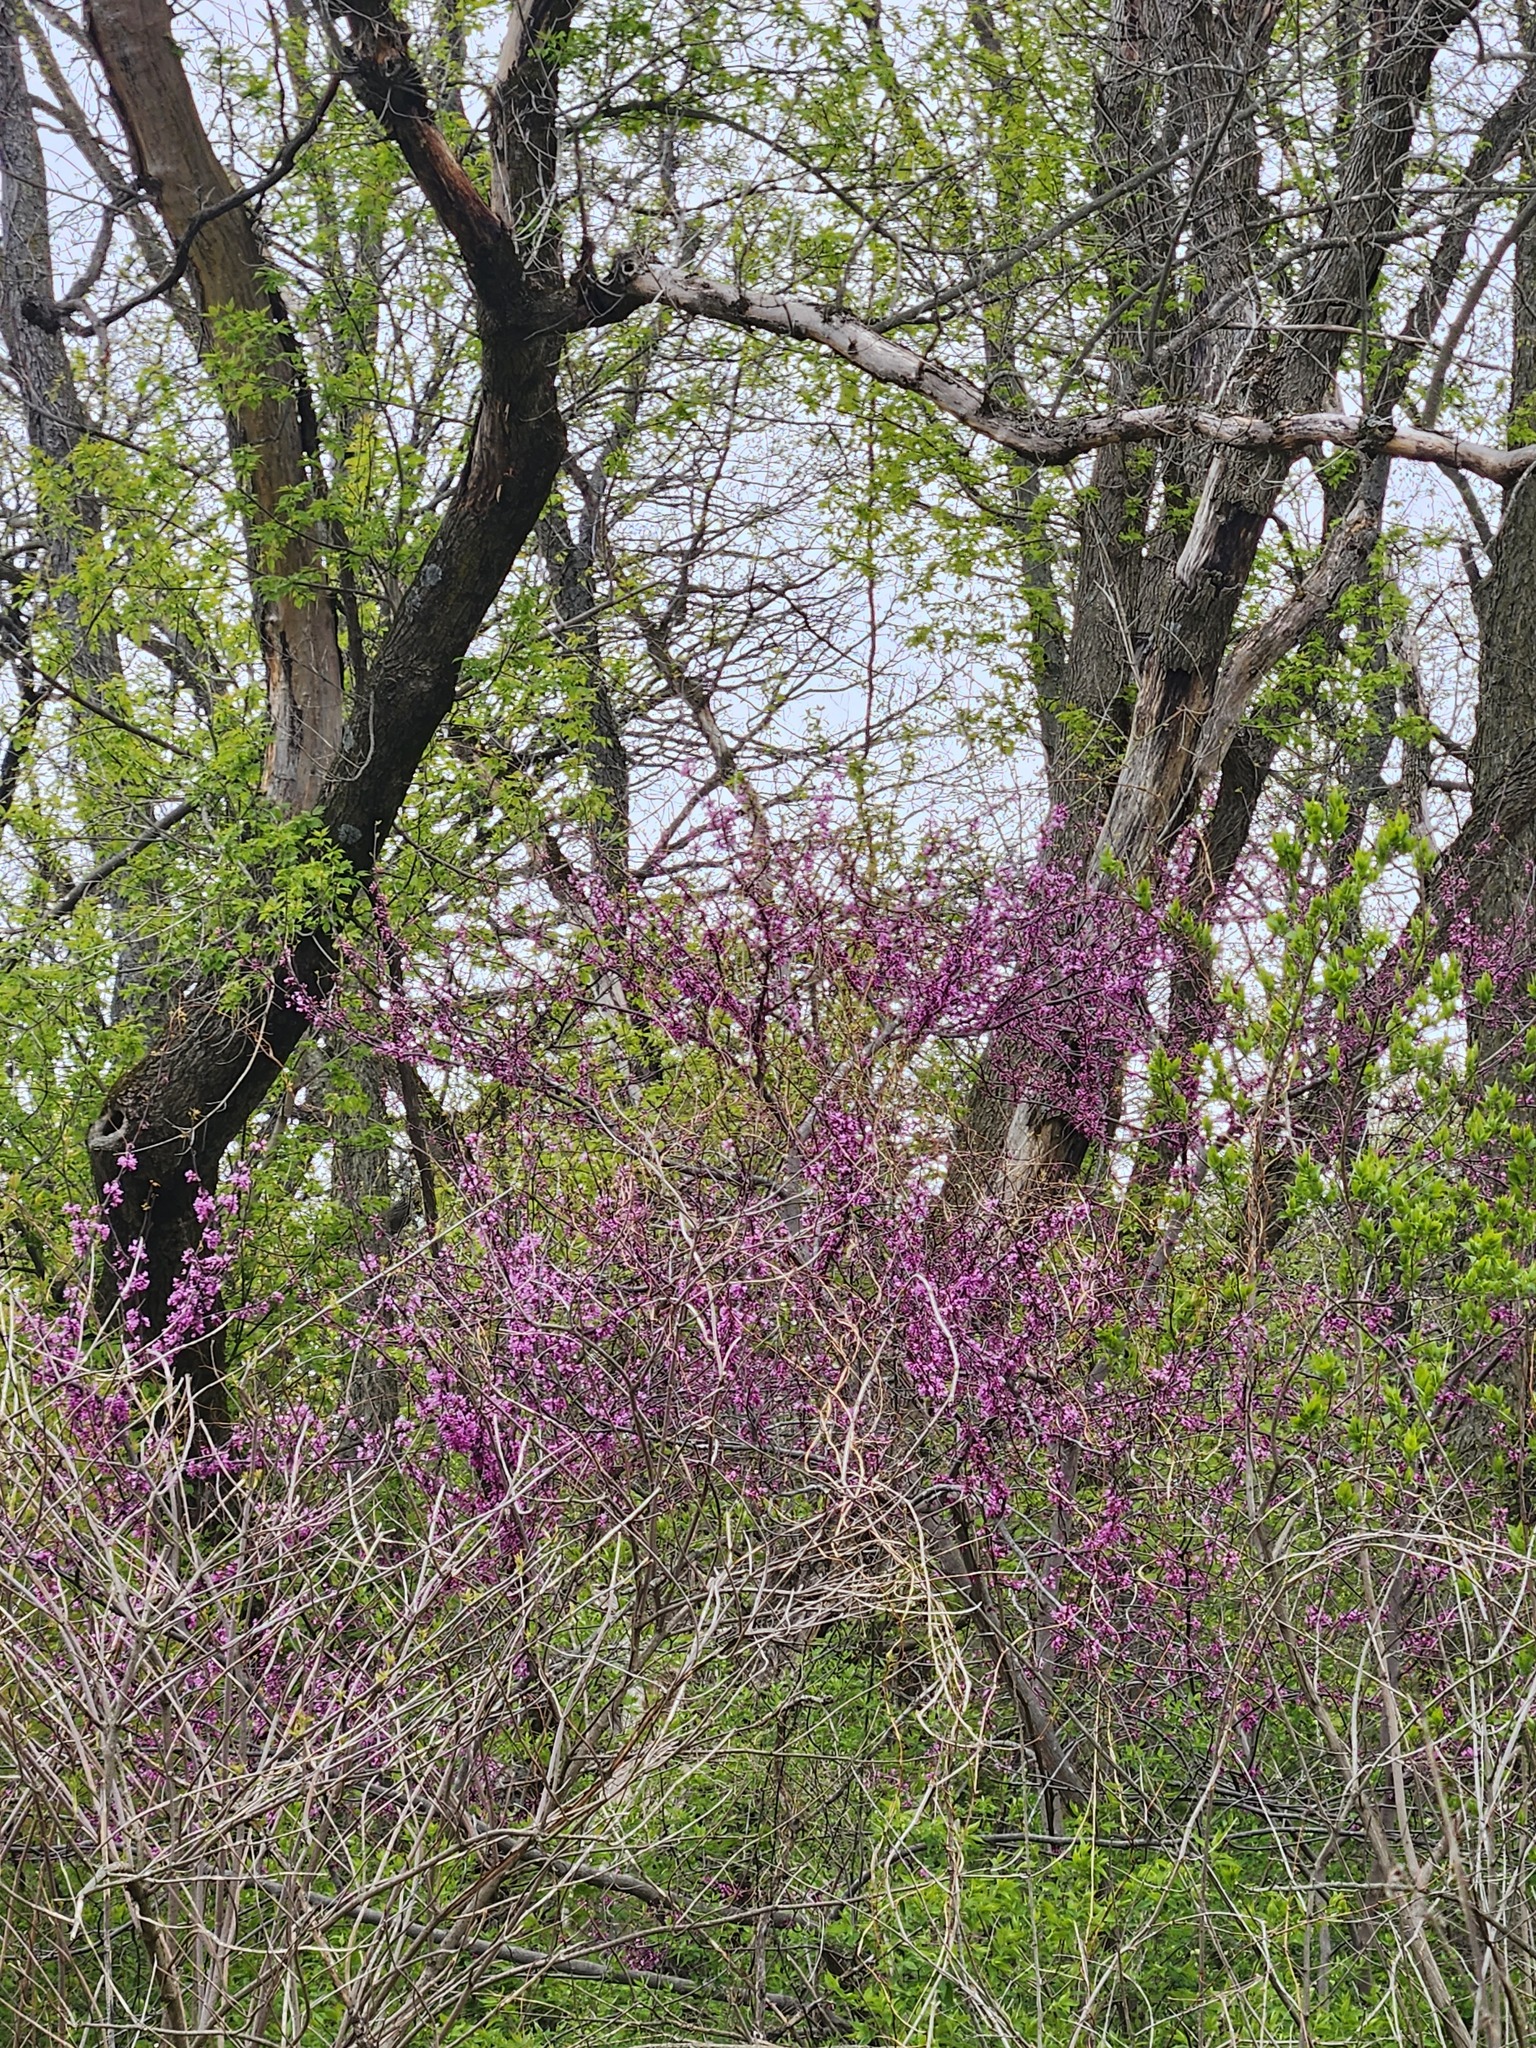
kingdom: Plantae
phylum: Tracheophyta
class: Magnoliopsida
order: Fabales
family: Fabaceae
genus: Cercis
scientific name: Cercis canadensis
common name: Eastern redbud
